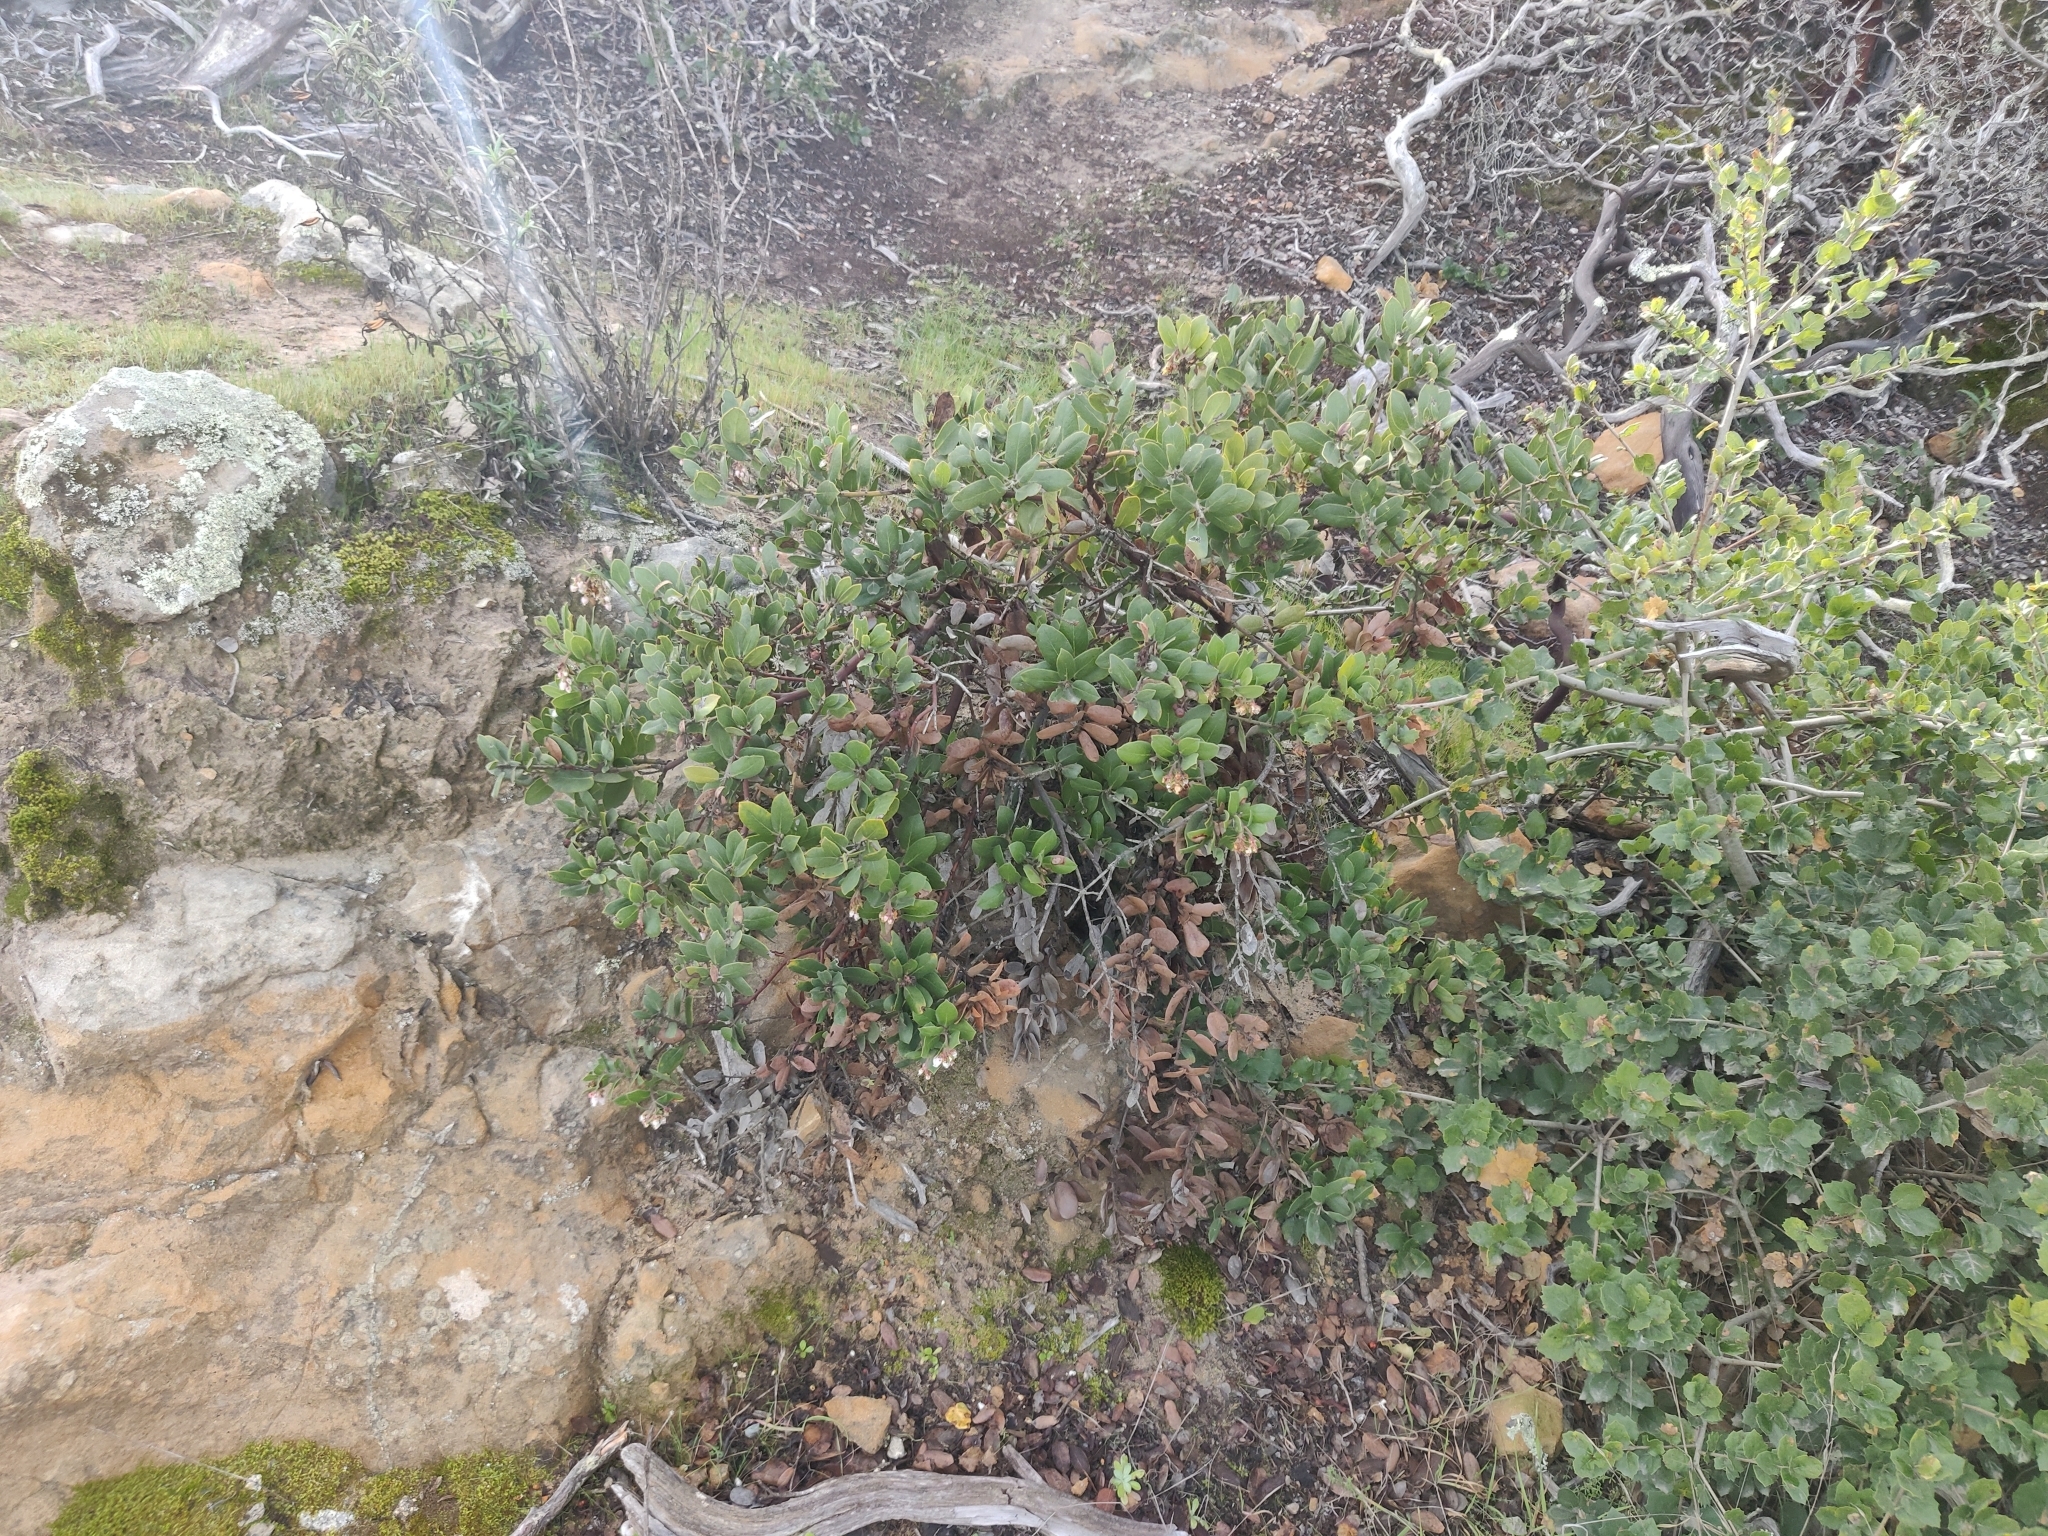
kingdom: Plantae
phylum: Tracheophyta
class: Magnoliopsida
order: Ericales
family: Ericaceae
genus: Arctostaphylos
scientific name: Arctostaphylos crustacea
